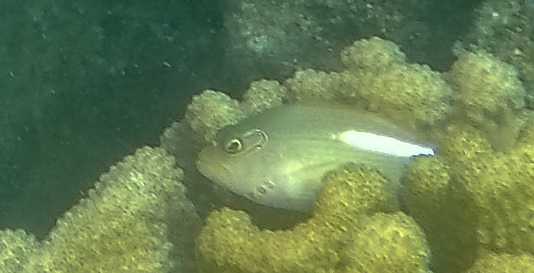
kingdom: Animalia
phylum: Chordata
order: Perciformes
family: Cirrhitidae
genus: Paracirrhites
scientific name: Paracirrhites arcatus
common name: Arc-eye hawkfish
